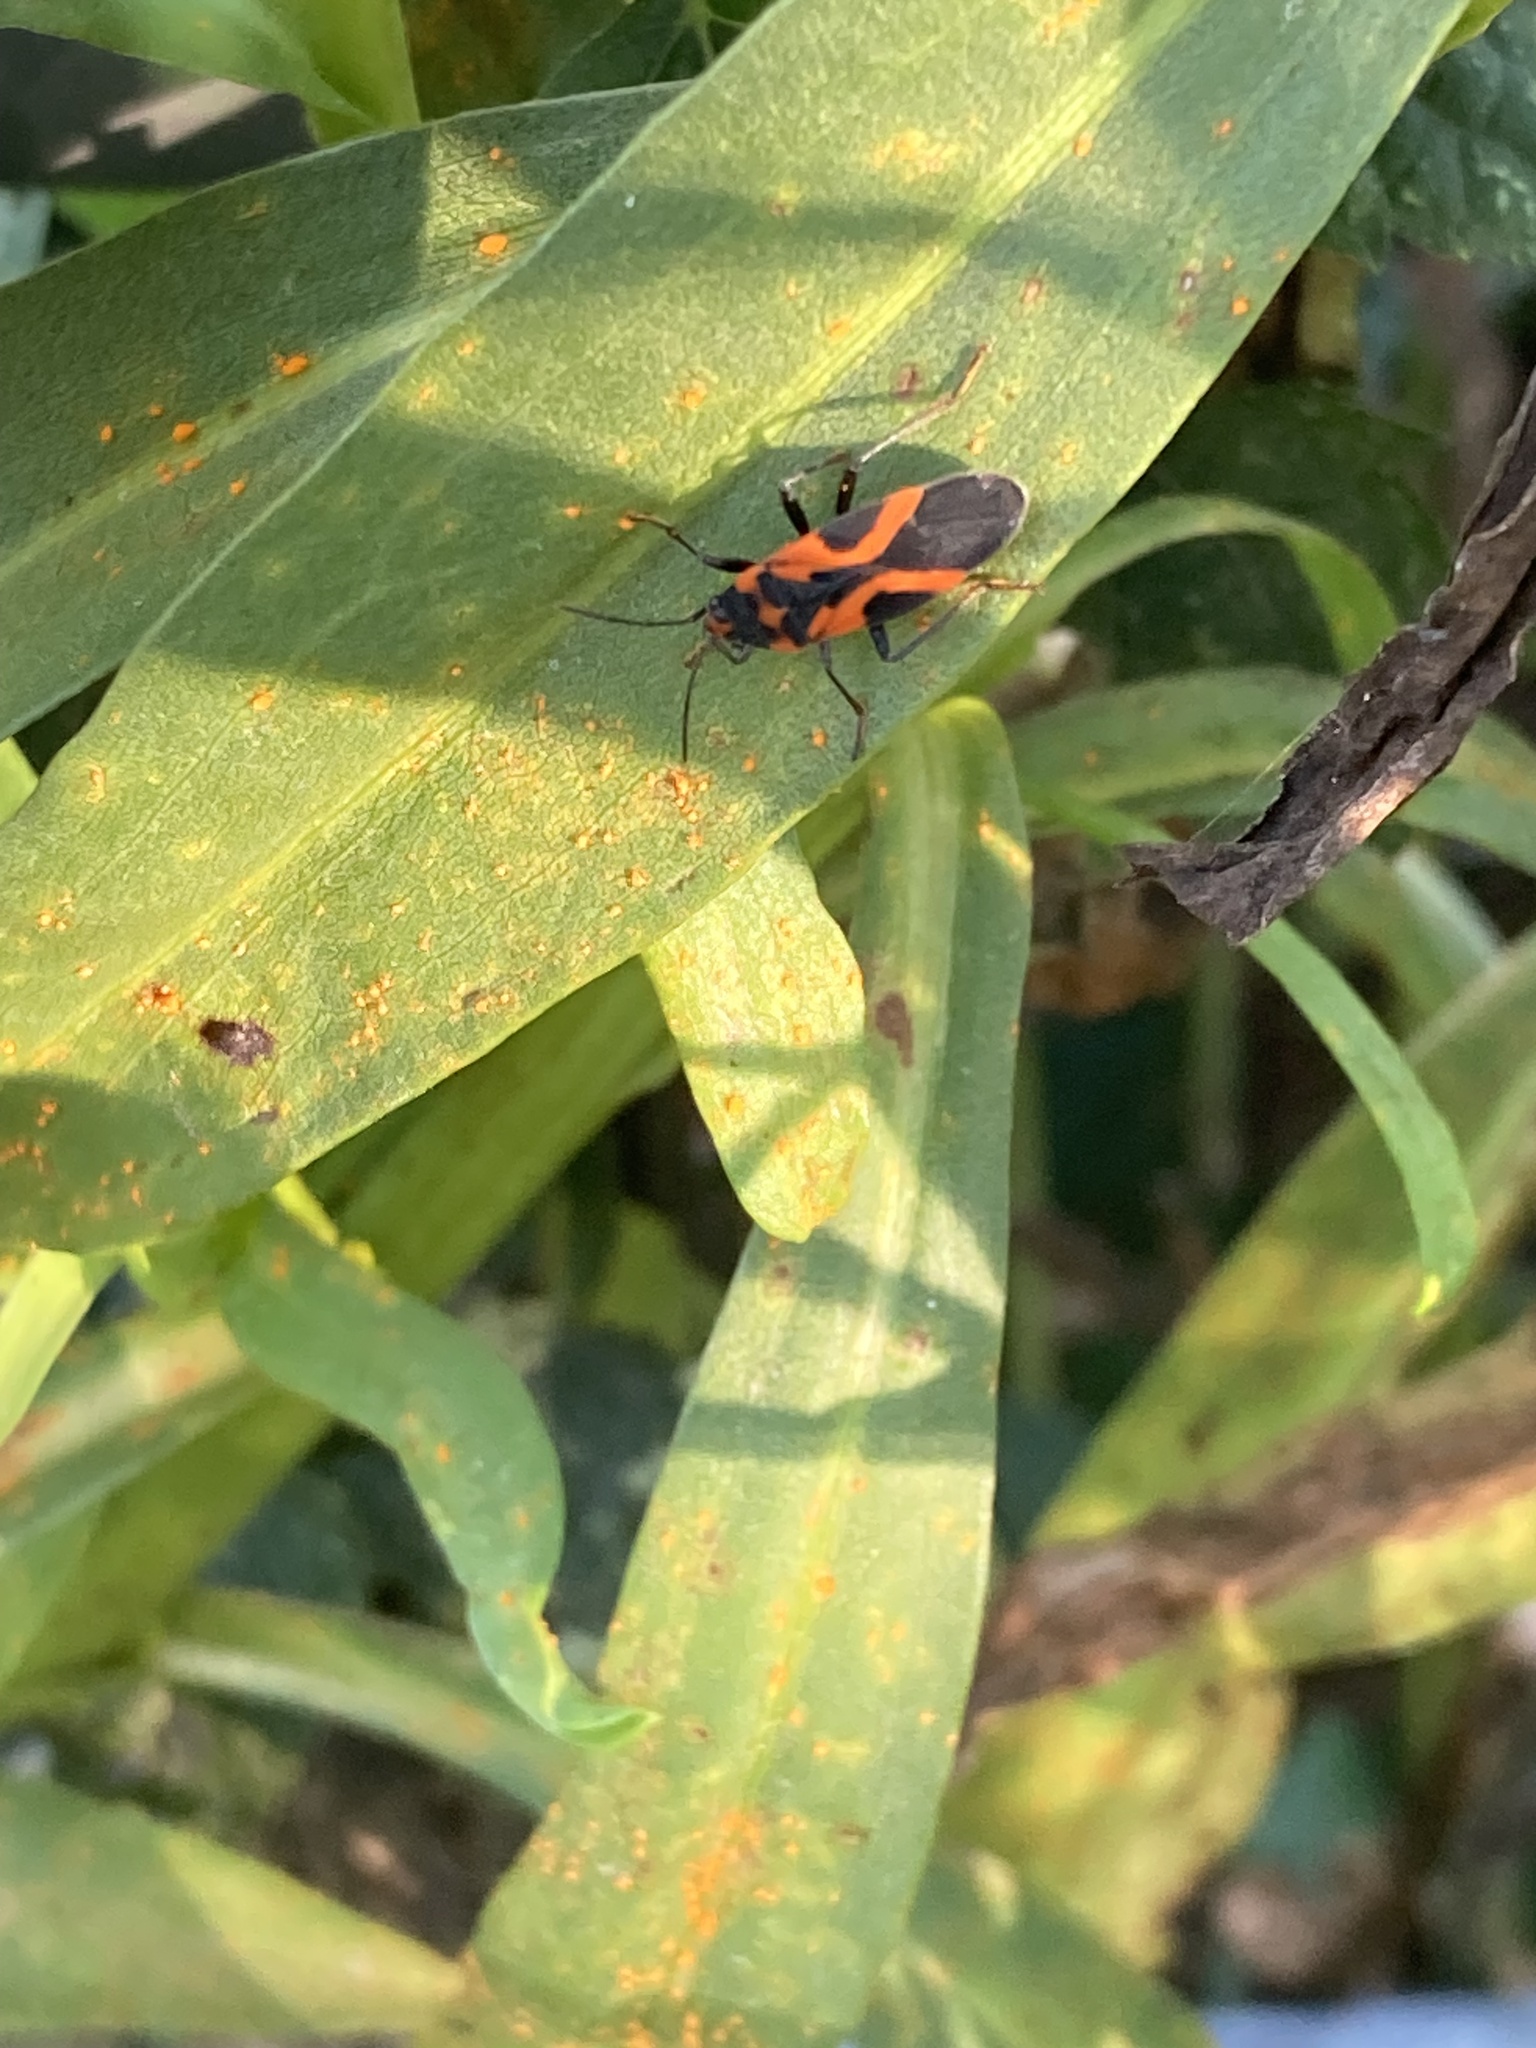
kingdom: Animalia
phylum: Arthropoda
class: Insecta
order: Hemiptera
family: Lygaeidae
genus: Lygaeus
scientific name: Lygaeus turcicus
